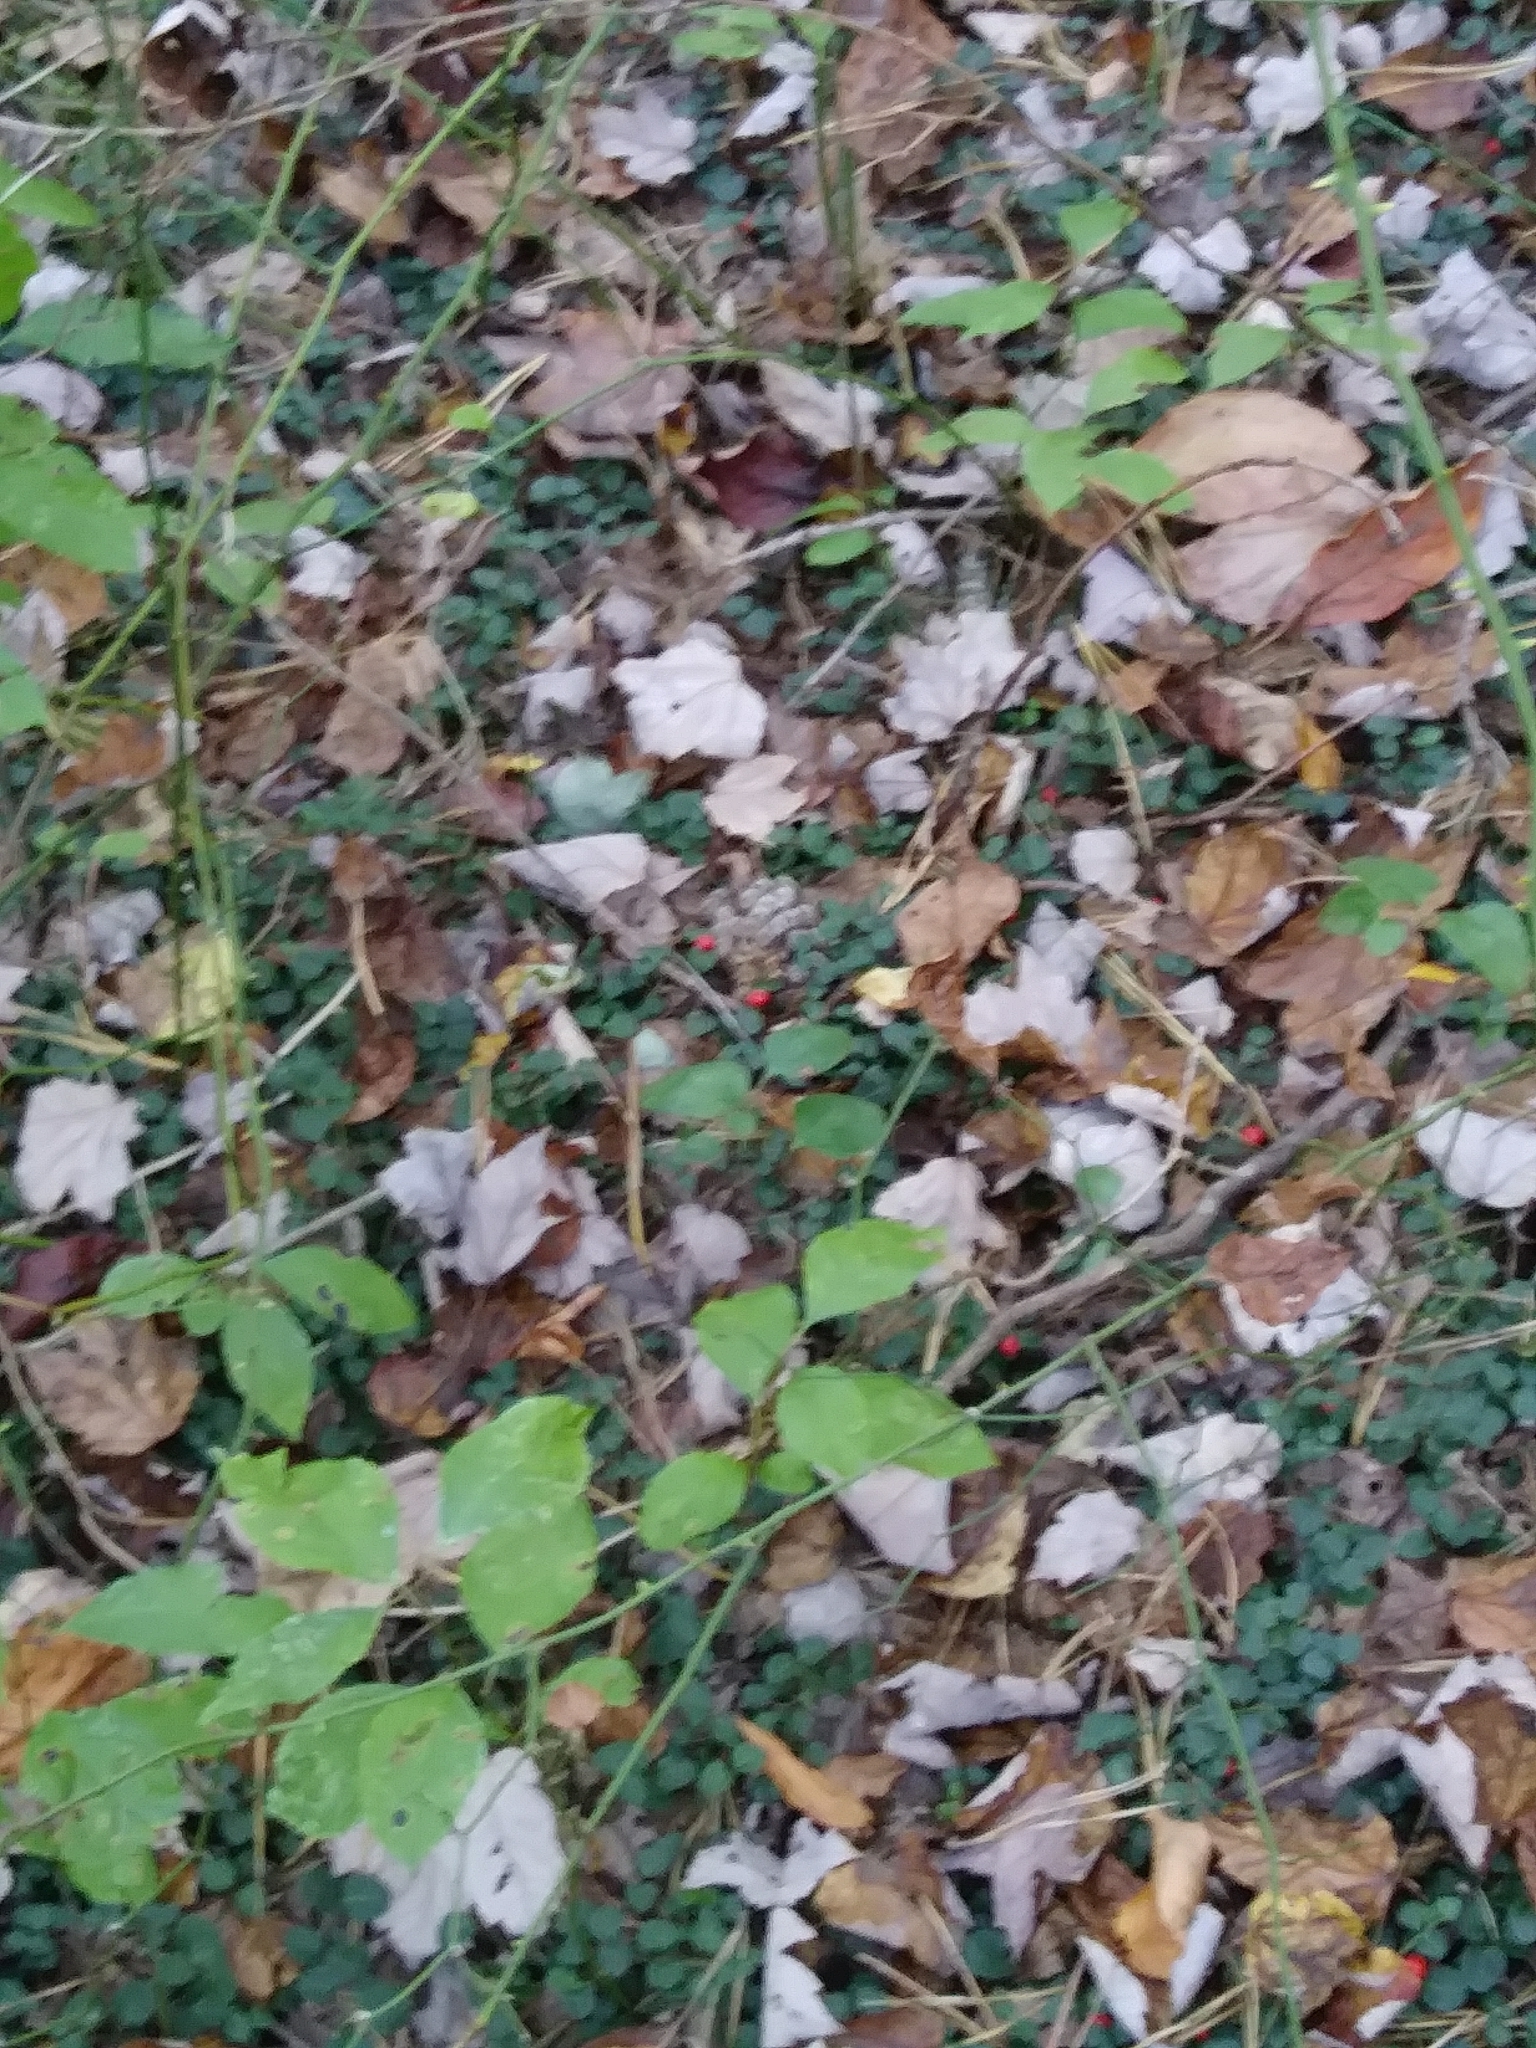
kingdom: Plantae
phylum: Tracheophyta
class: Magnoliopsida
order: Gentianales
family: Rubiaceae
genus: Mitchella
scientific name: Mitchella repens
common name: Partridge-berry
